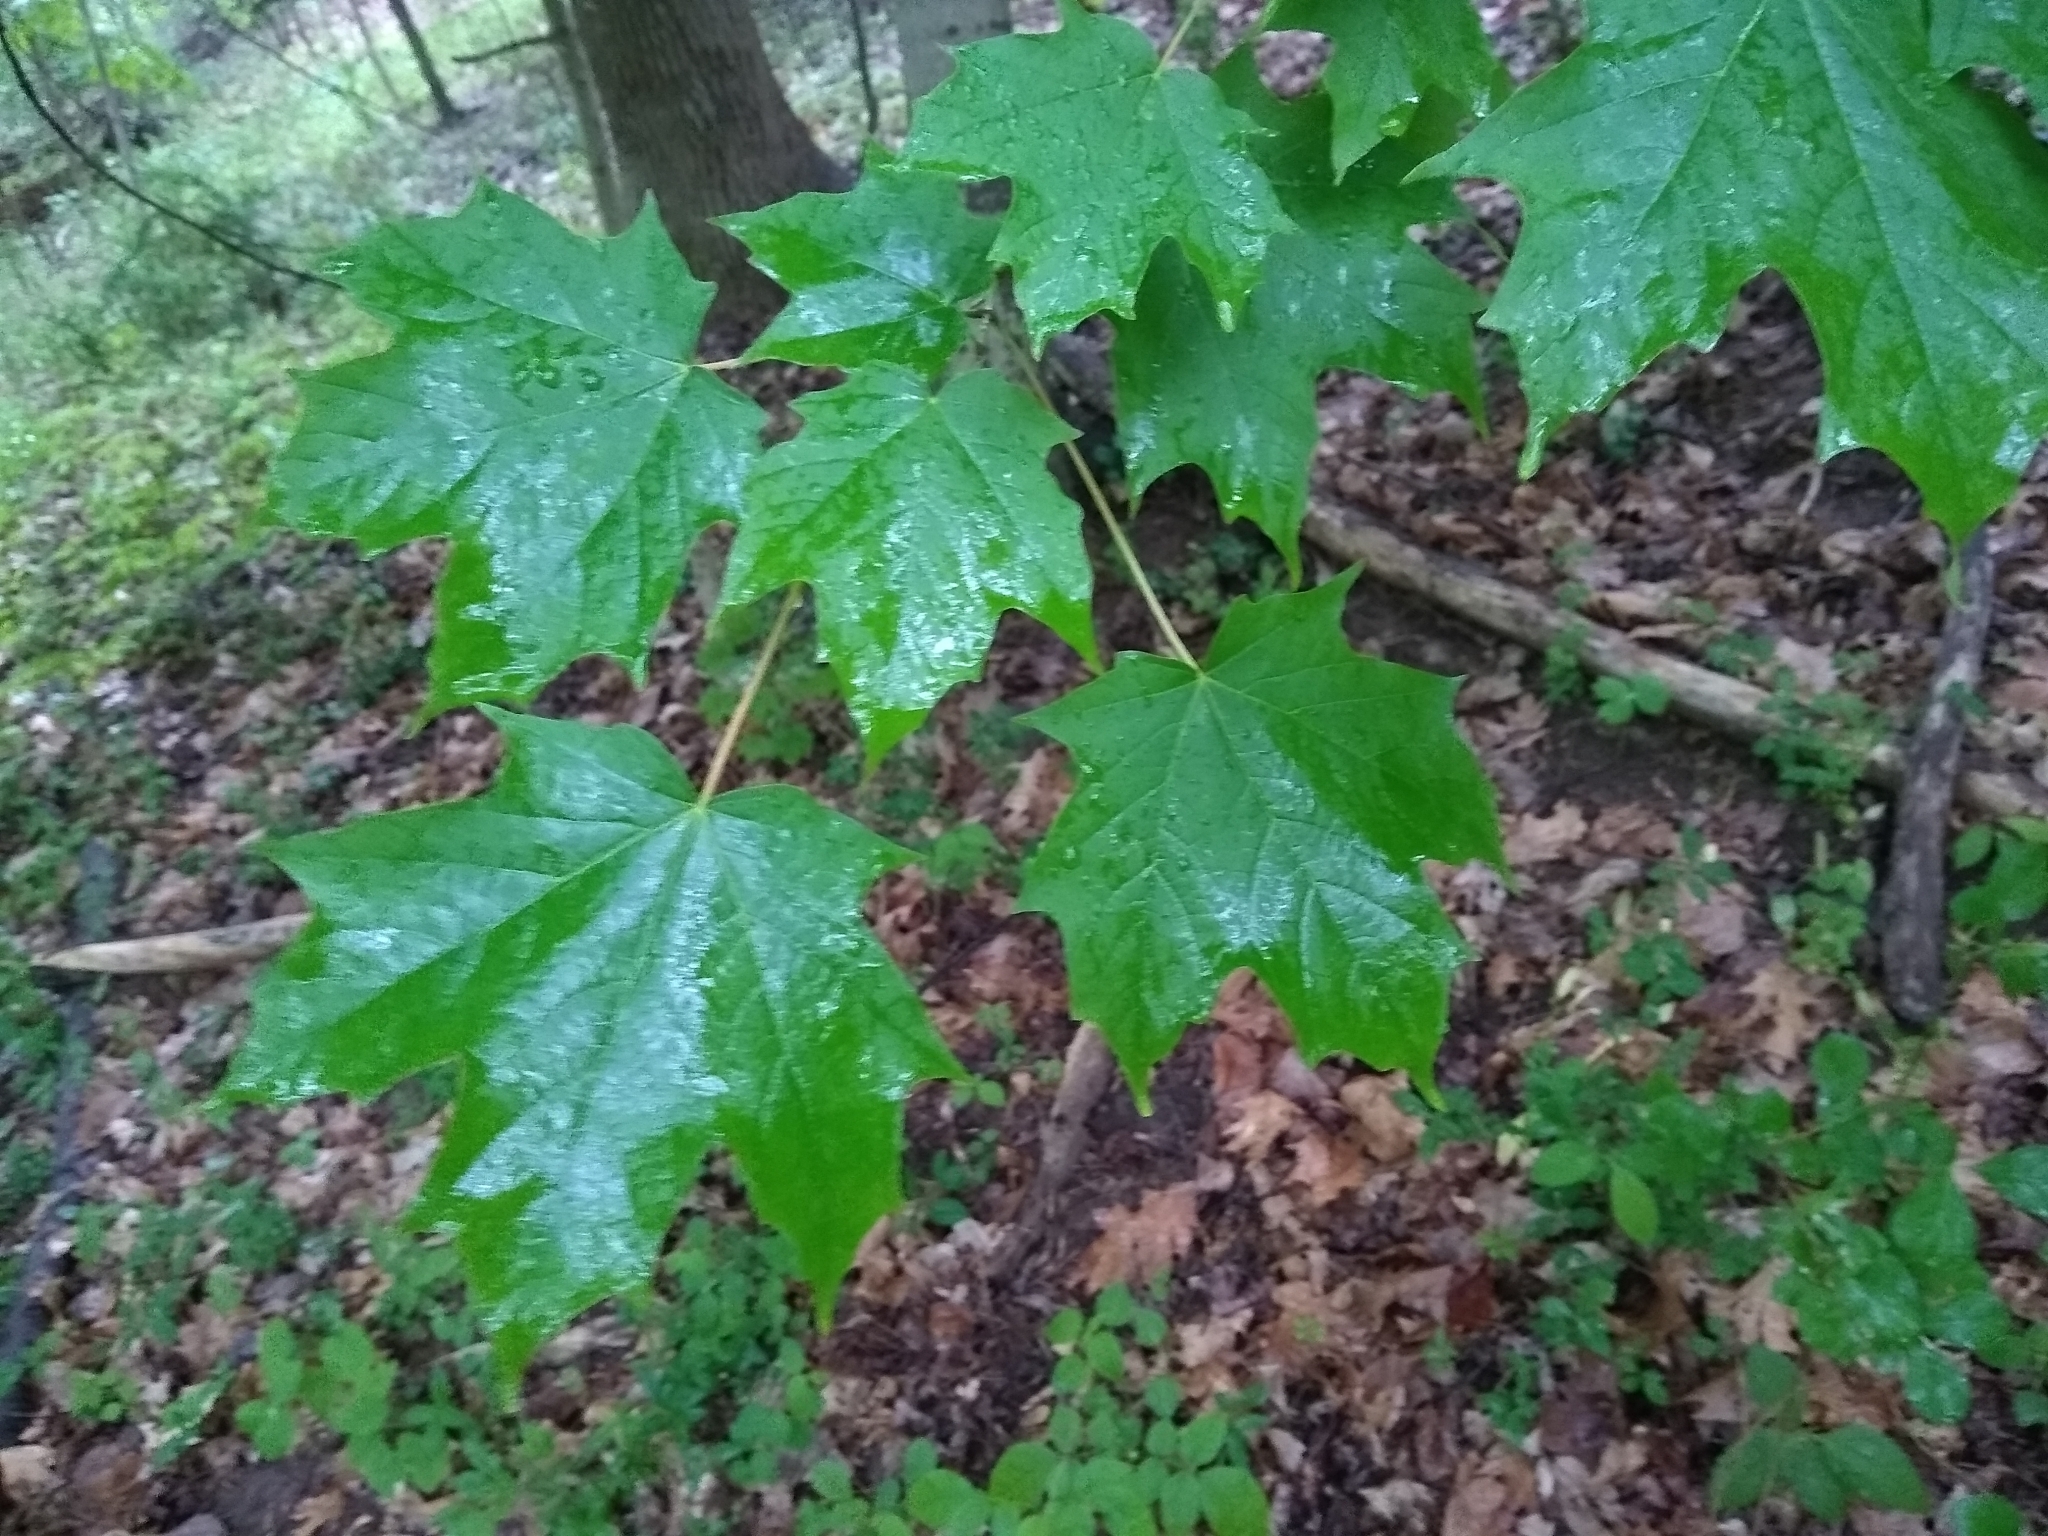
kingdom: Plantae
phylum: Tracheophyta
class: Magnoliopsida
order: Sapindales
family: Sapindaceae
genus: Acer
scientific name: Acer saccharum
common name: Sugar maple
